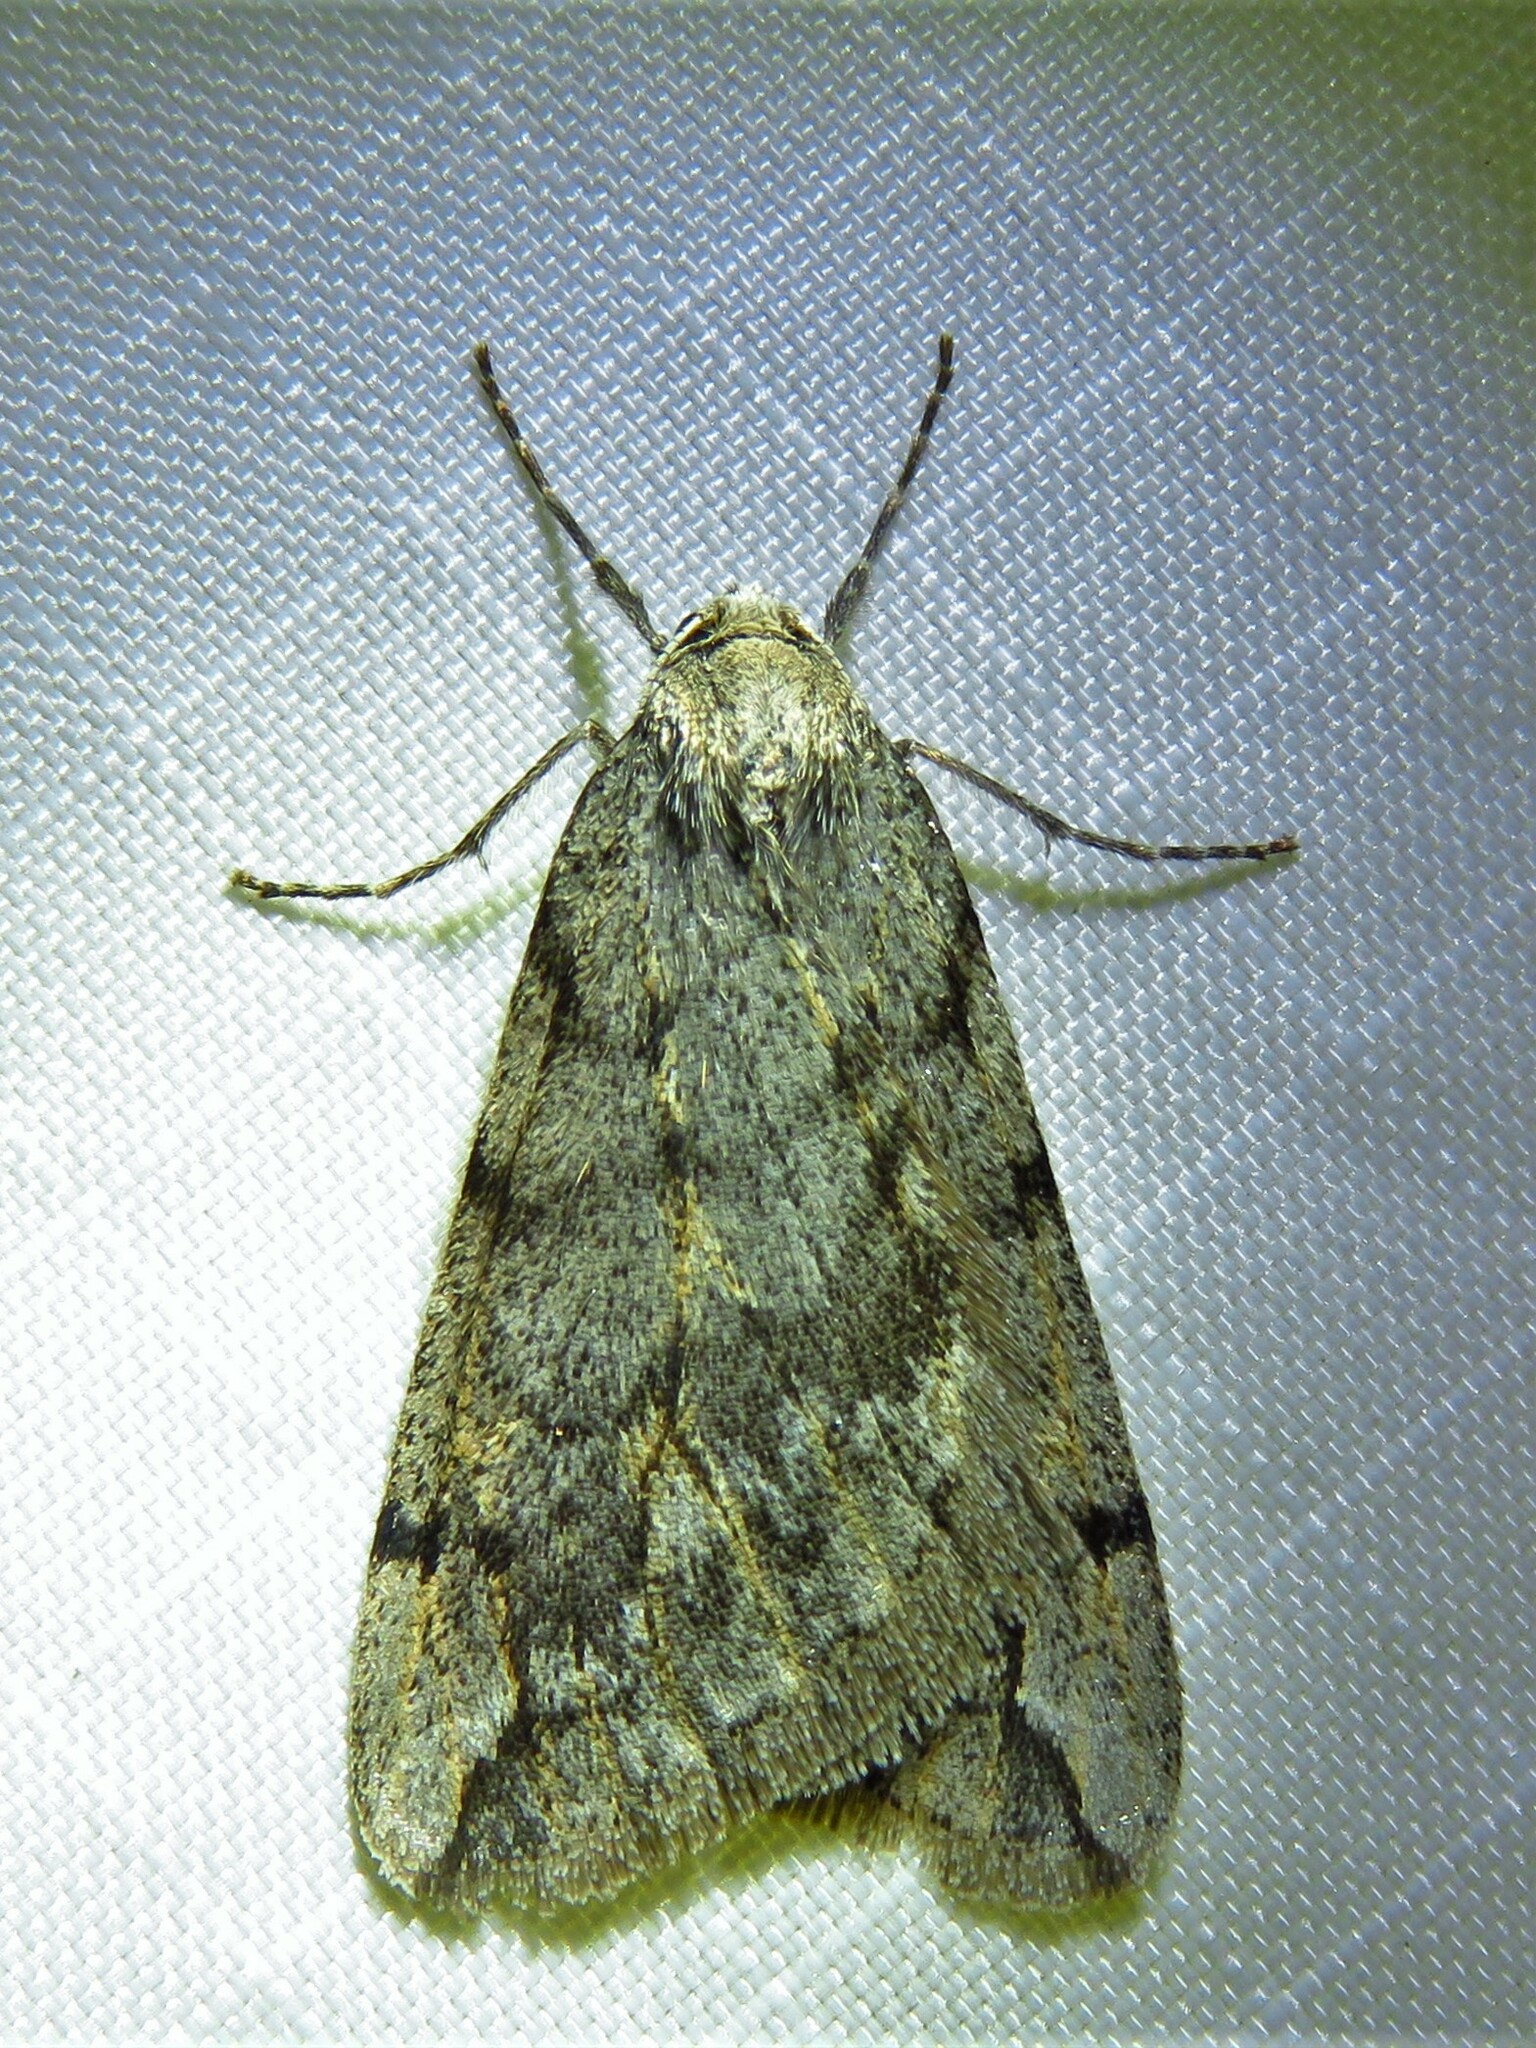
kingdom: Animalia
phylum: Arthropoda
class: Insecta
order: Lepidoptera
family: Geometridae
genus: Paleacrita
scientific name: Paleacrita vernata
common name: Spring cankerworm
